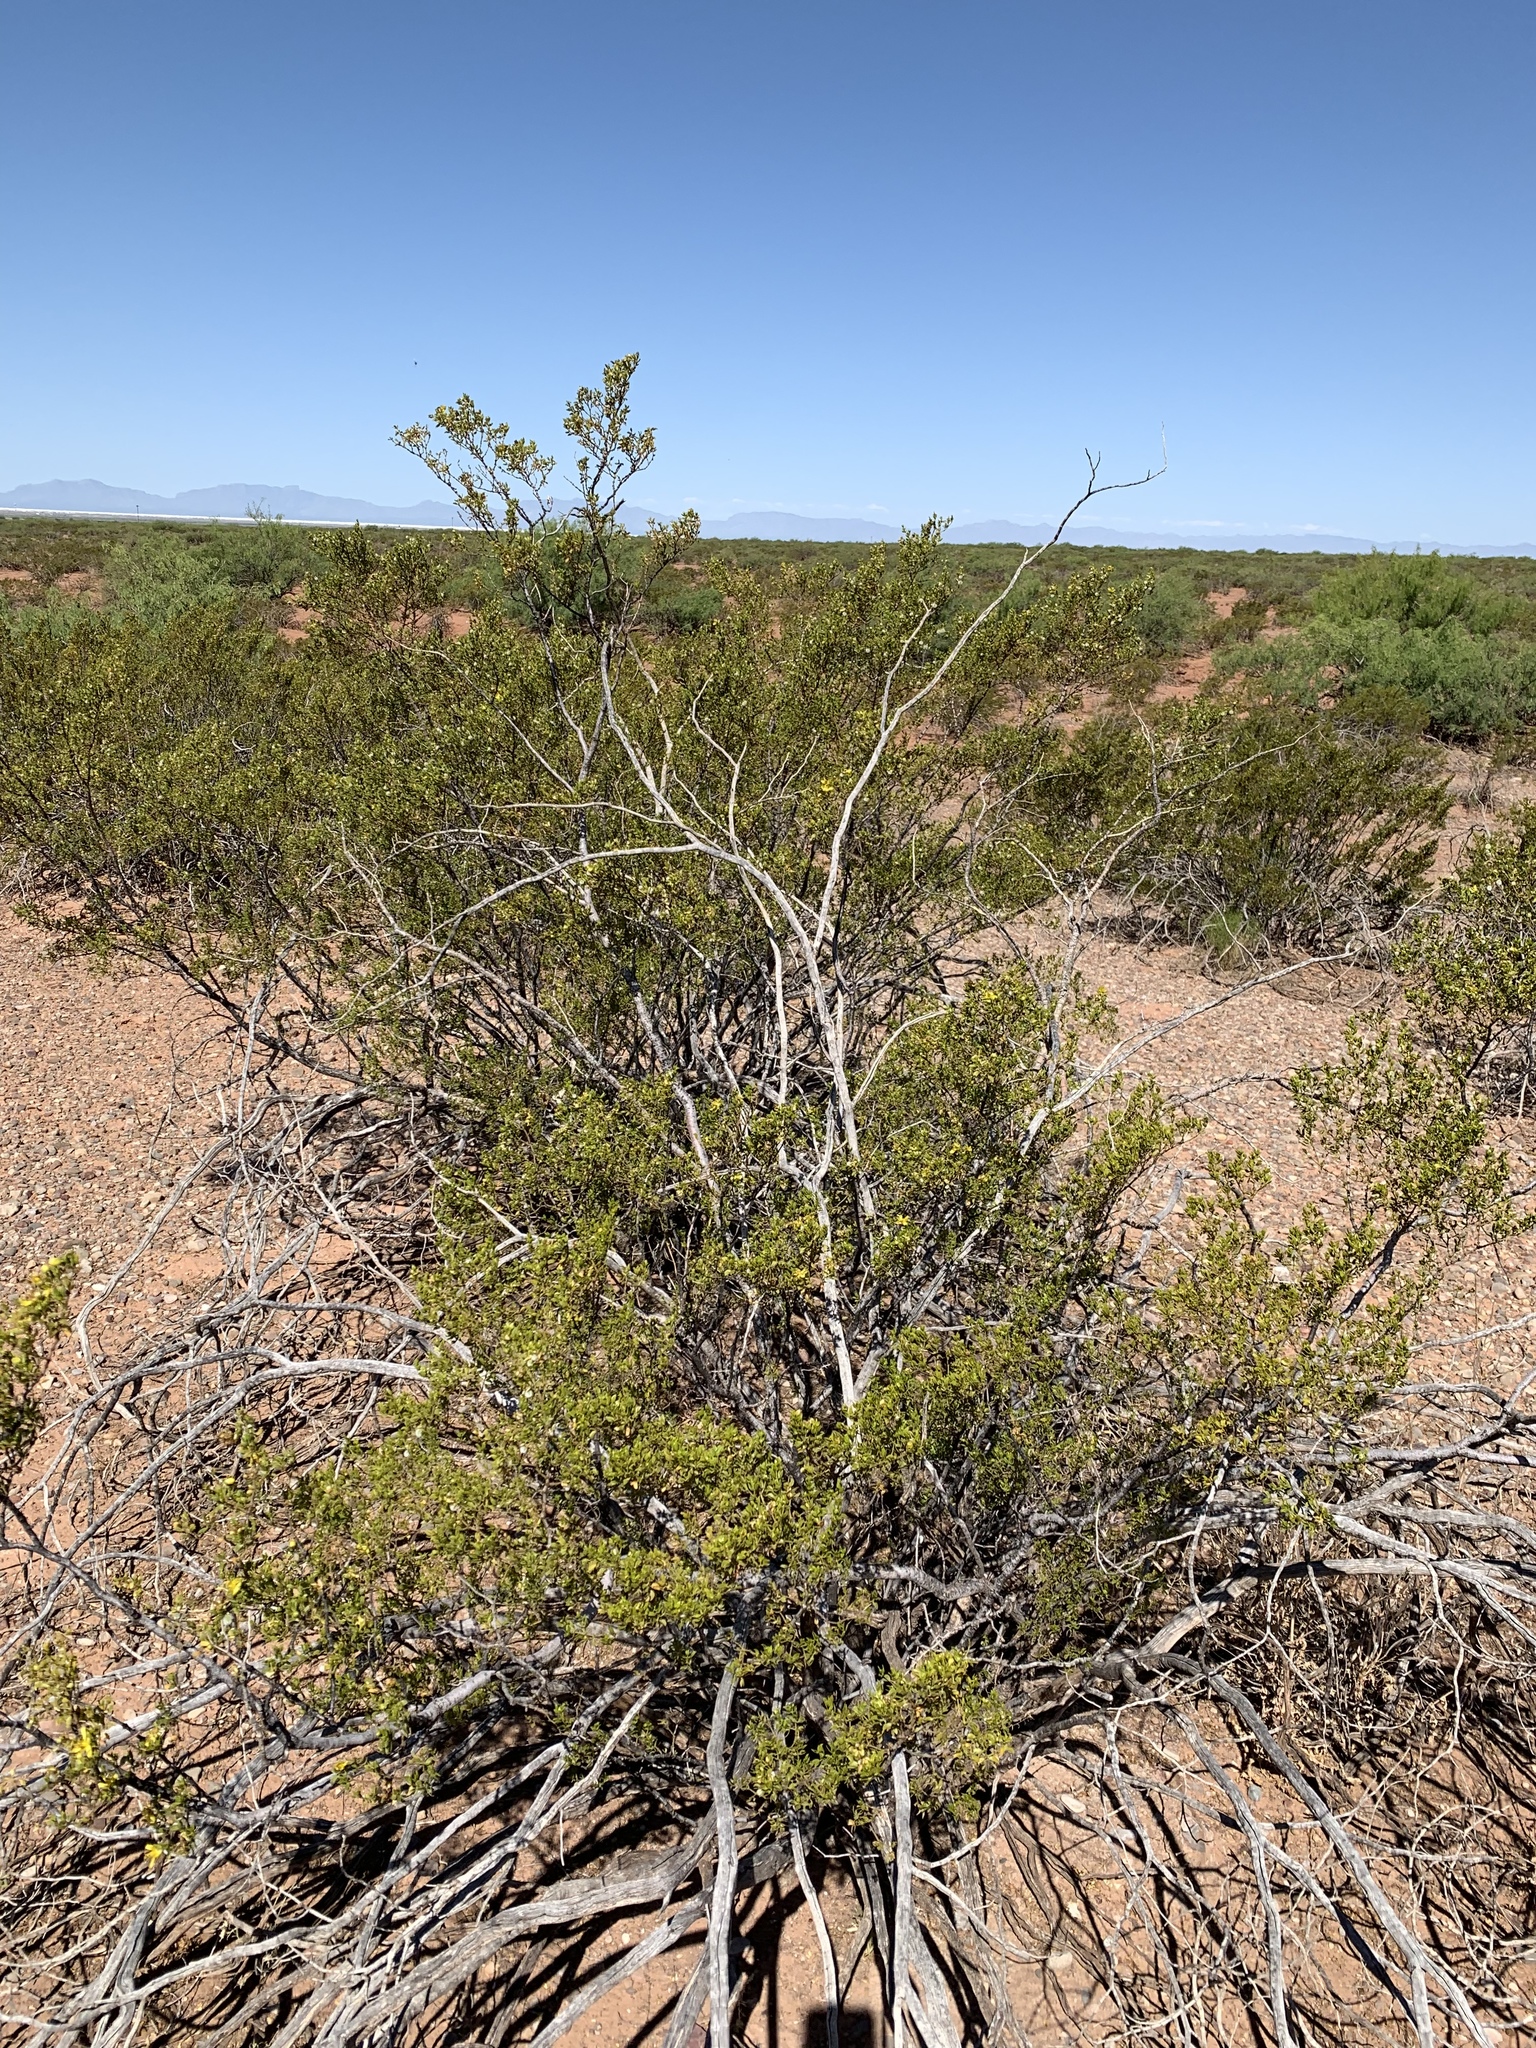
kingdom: Plantae
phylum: Tracheophyta
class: Magnoliopsida
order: Zygophyllales
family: Zygophyllaceae
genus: Larrea
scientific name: Larrea tridentata
